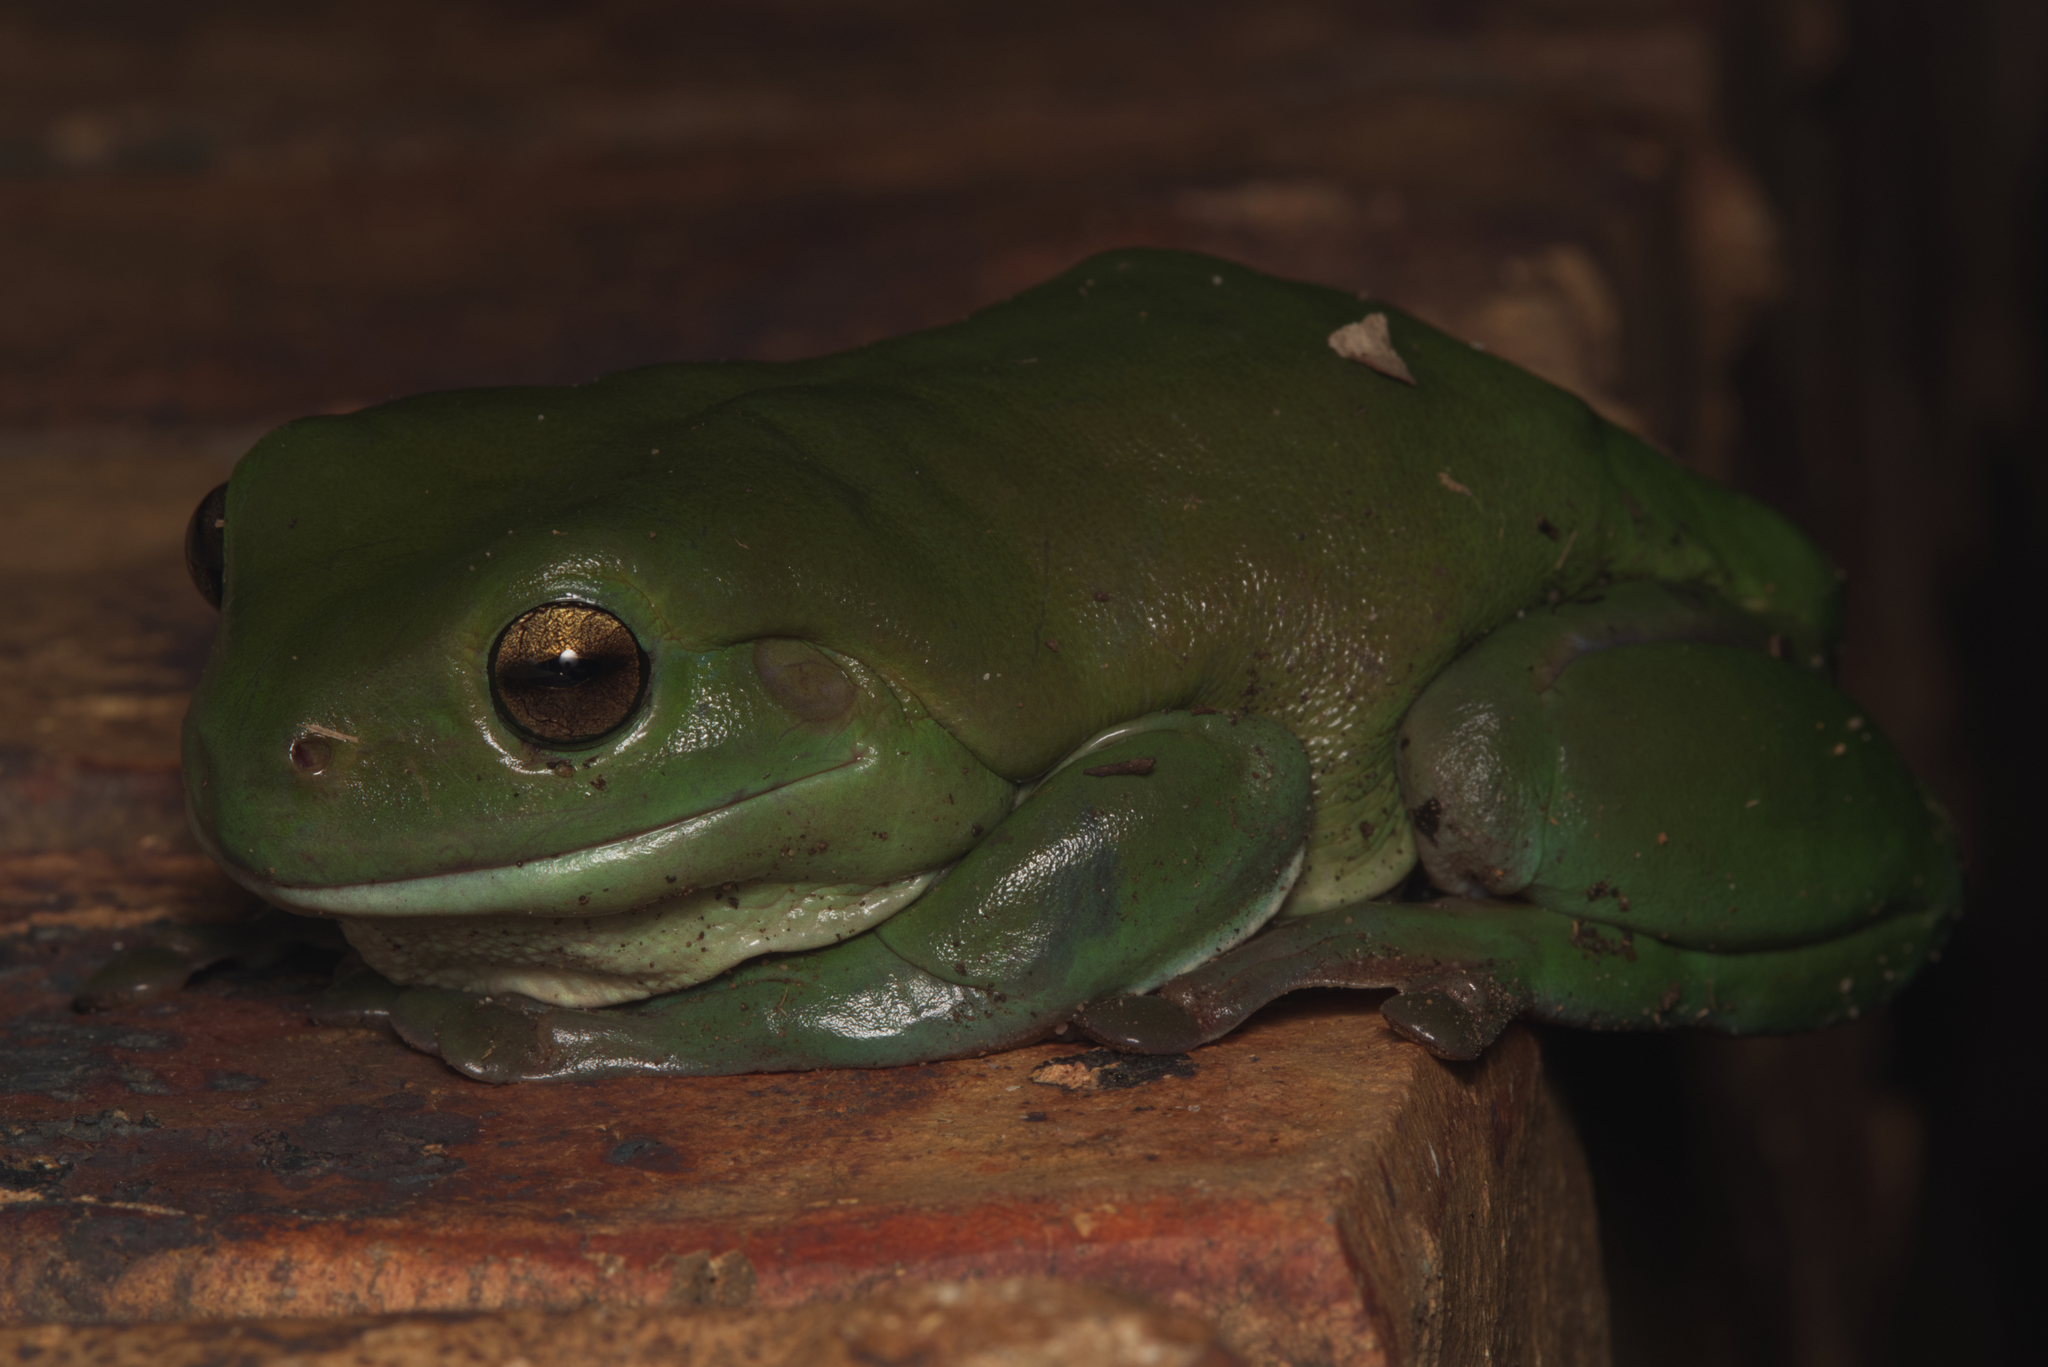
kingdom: Animalia
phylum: Chordata
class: Amphibia
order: Anura
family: Pelodryadidae
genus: Ranoidea
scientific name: Ranoidea caerulea
